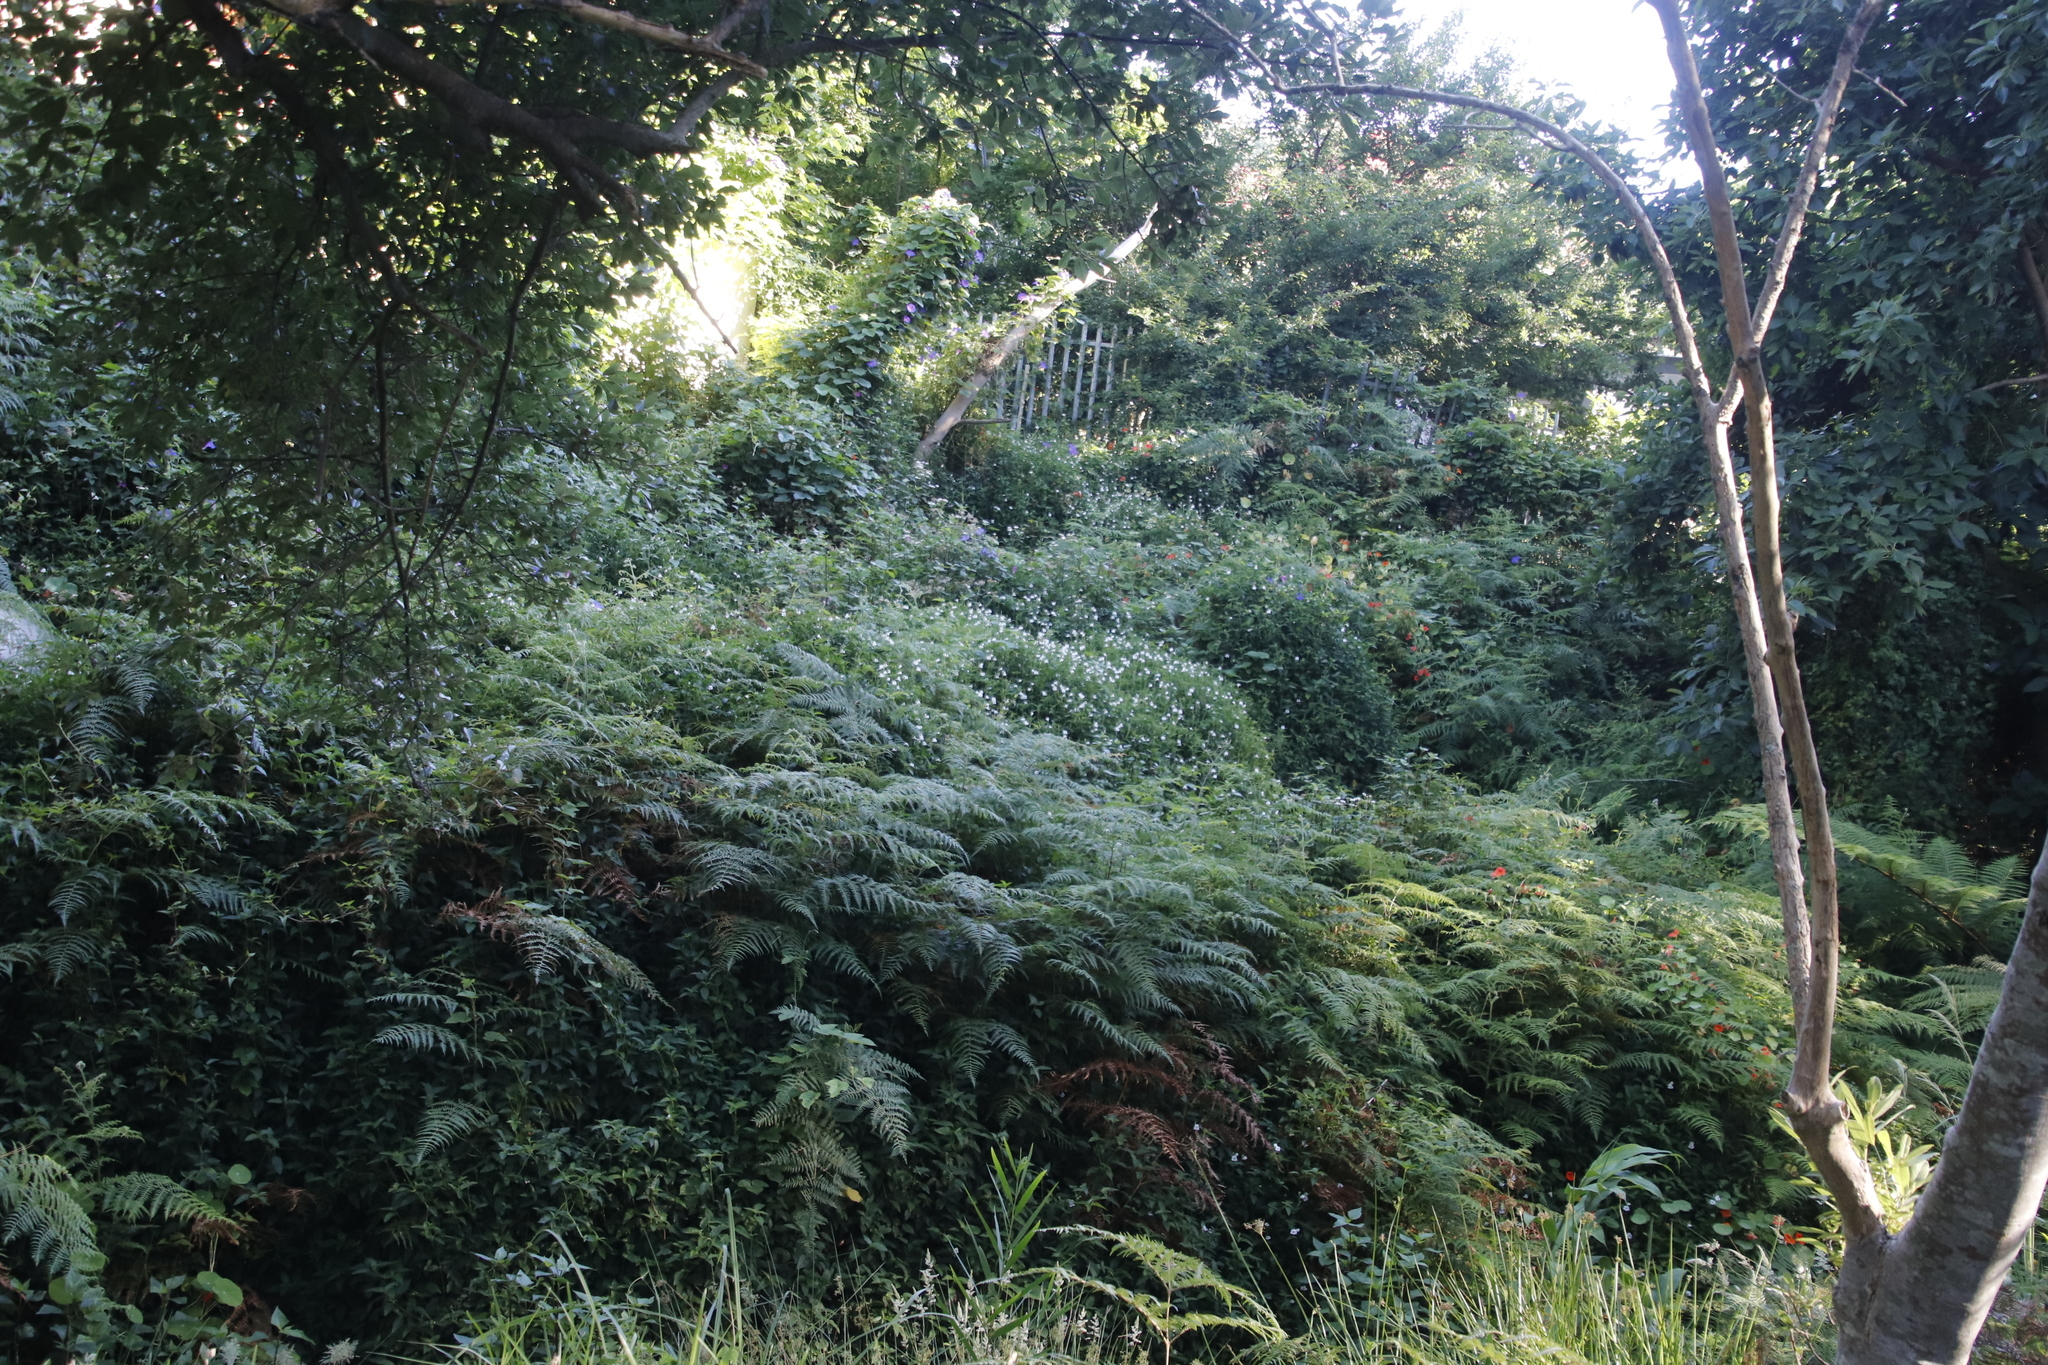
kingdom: Plantae
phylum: Tracheophyta
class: Magnoliopsida
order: Lamiales
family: Acanthaceae
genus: Asystasia
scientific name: Asystasia intrusa
